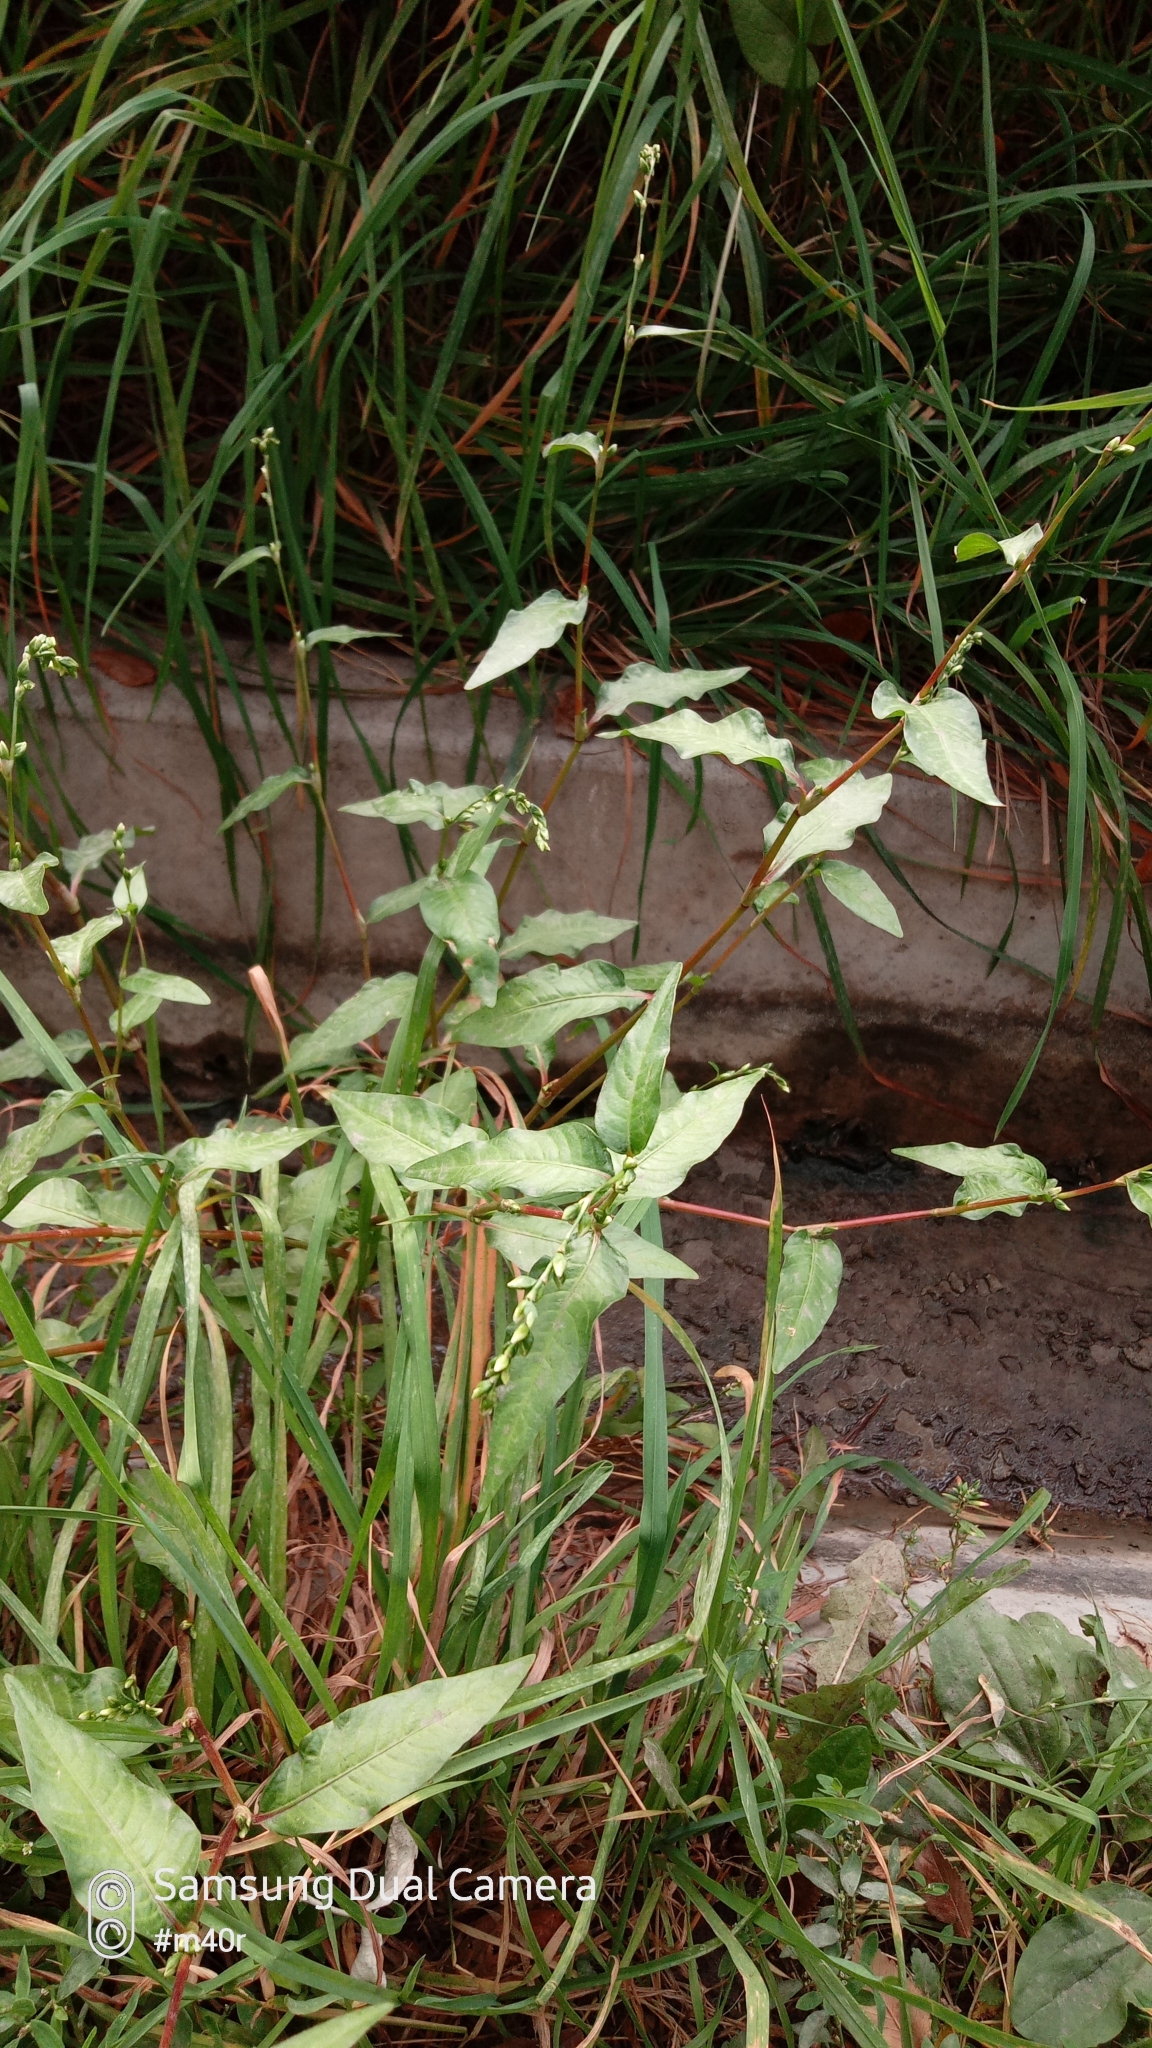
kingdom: Plantae
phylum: Tracheophyta
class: Magnoliopsida
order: Caryophyllales
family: Polygonaceae
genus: Persicaria
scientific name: Persicaria hydropiper
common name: Water-pepper
